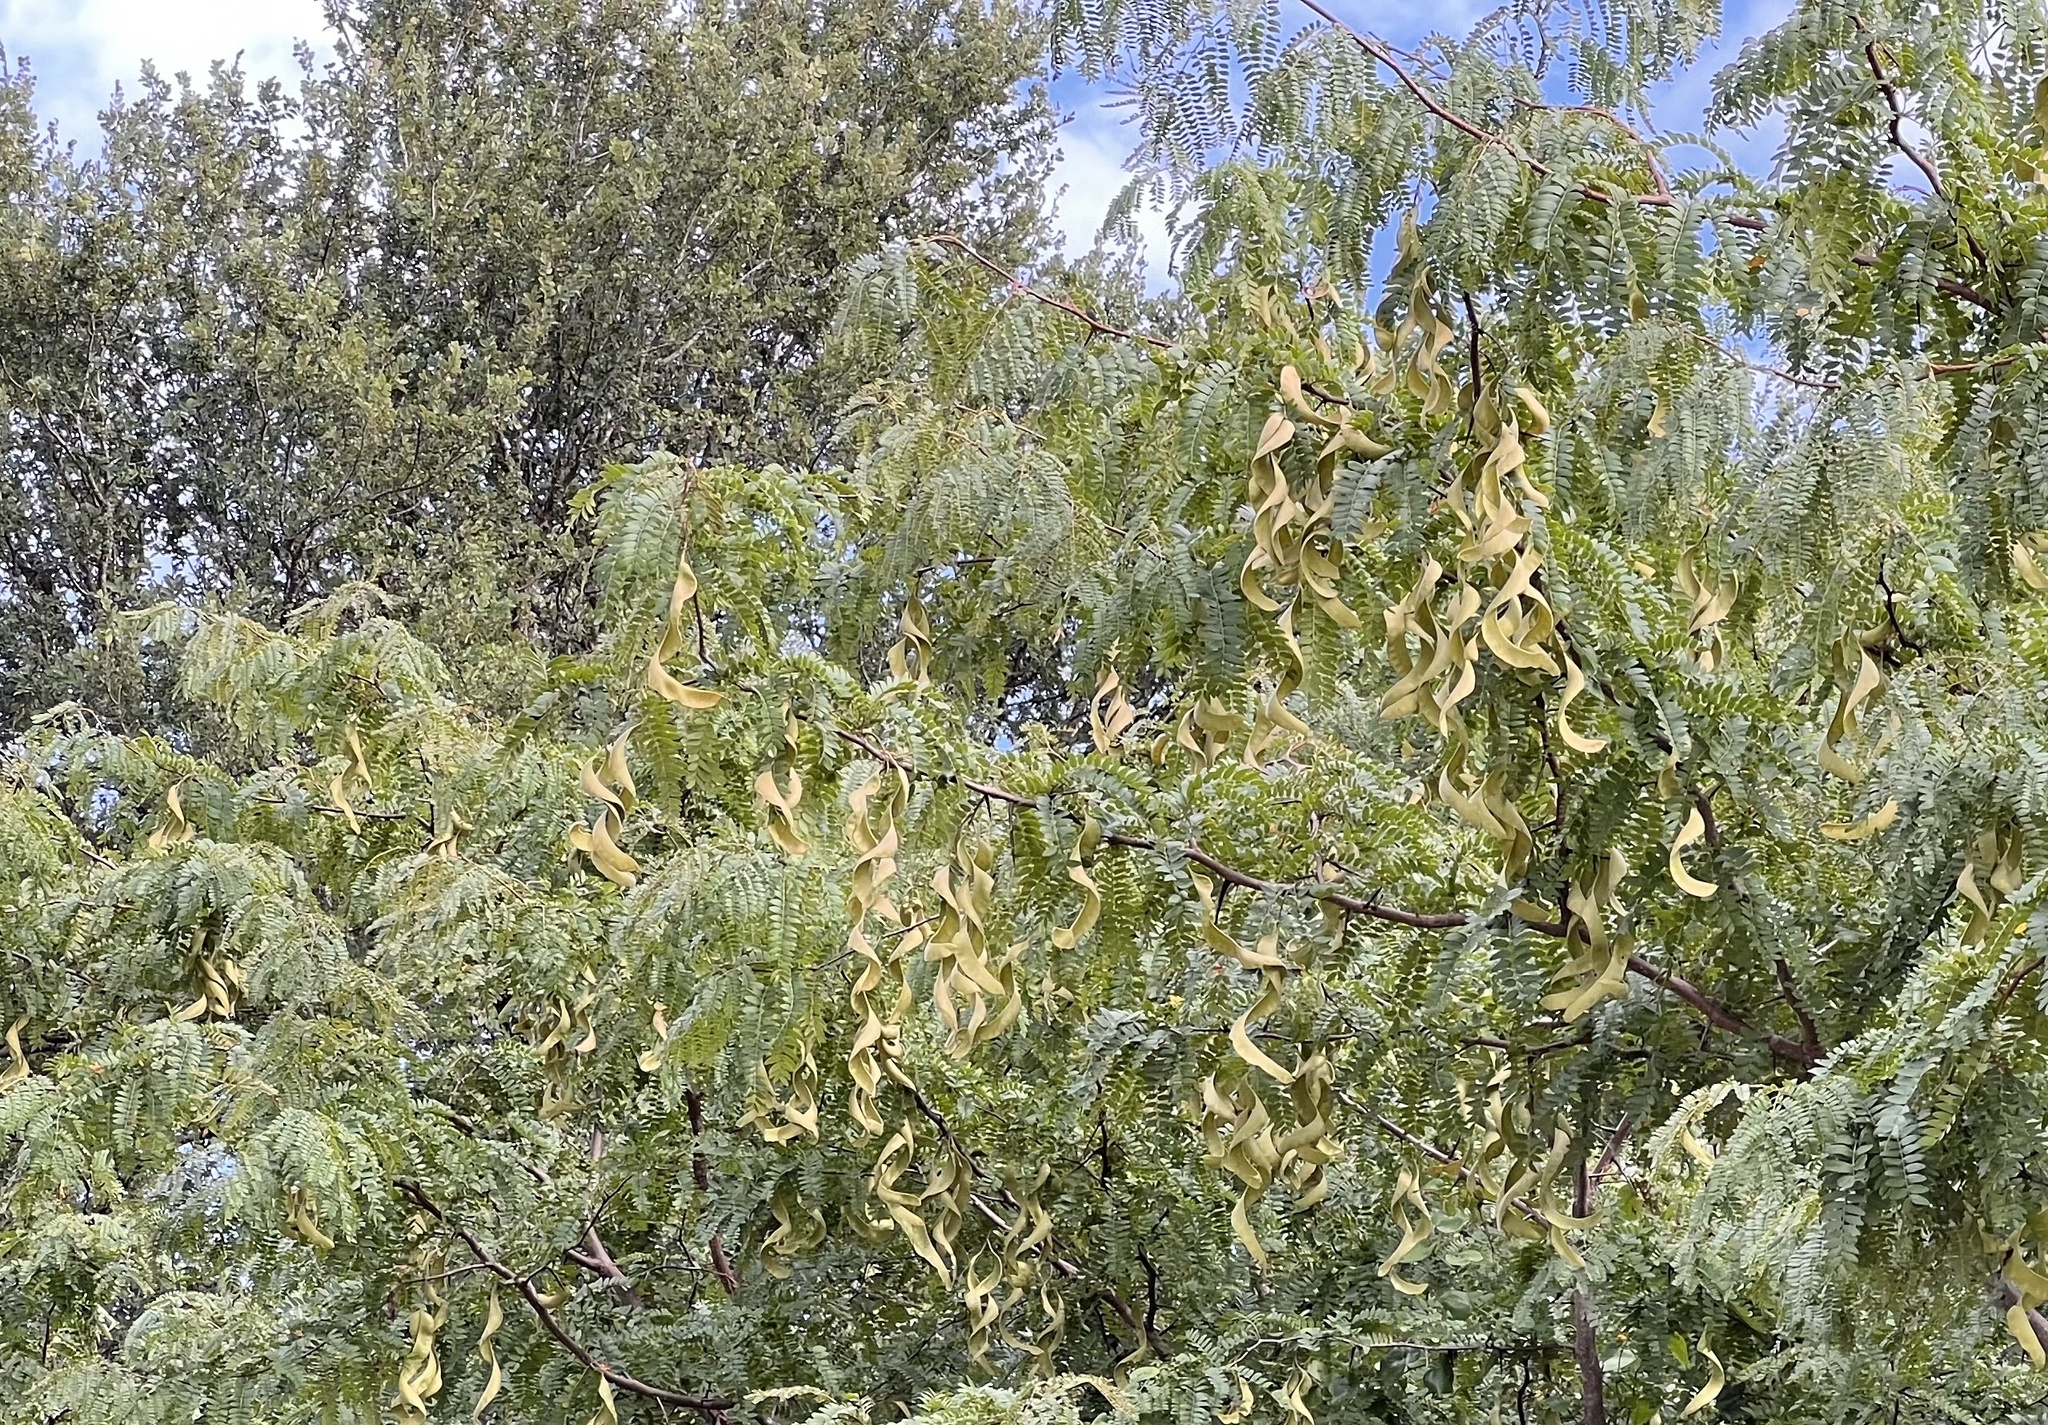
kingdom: Plantae
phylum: Tracheophyta
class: Magnoliopsida
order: Fabales
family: Fabaceae
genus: Gleditsia
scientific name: Gleditsia triacanthos
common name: Common honeylocust
